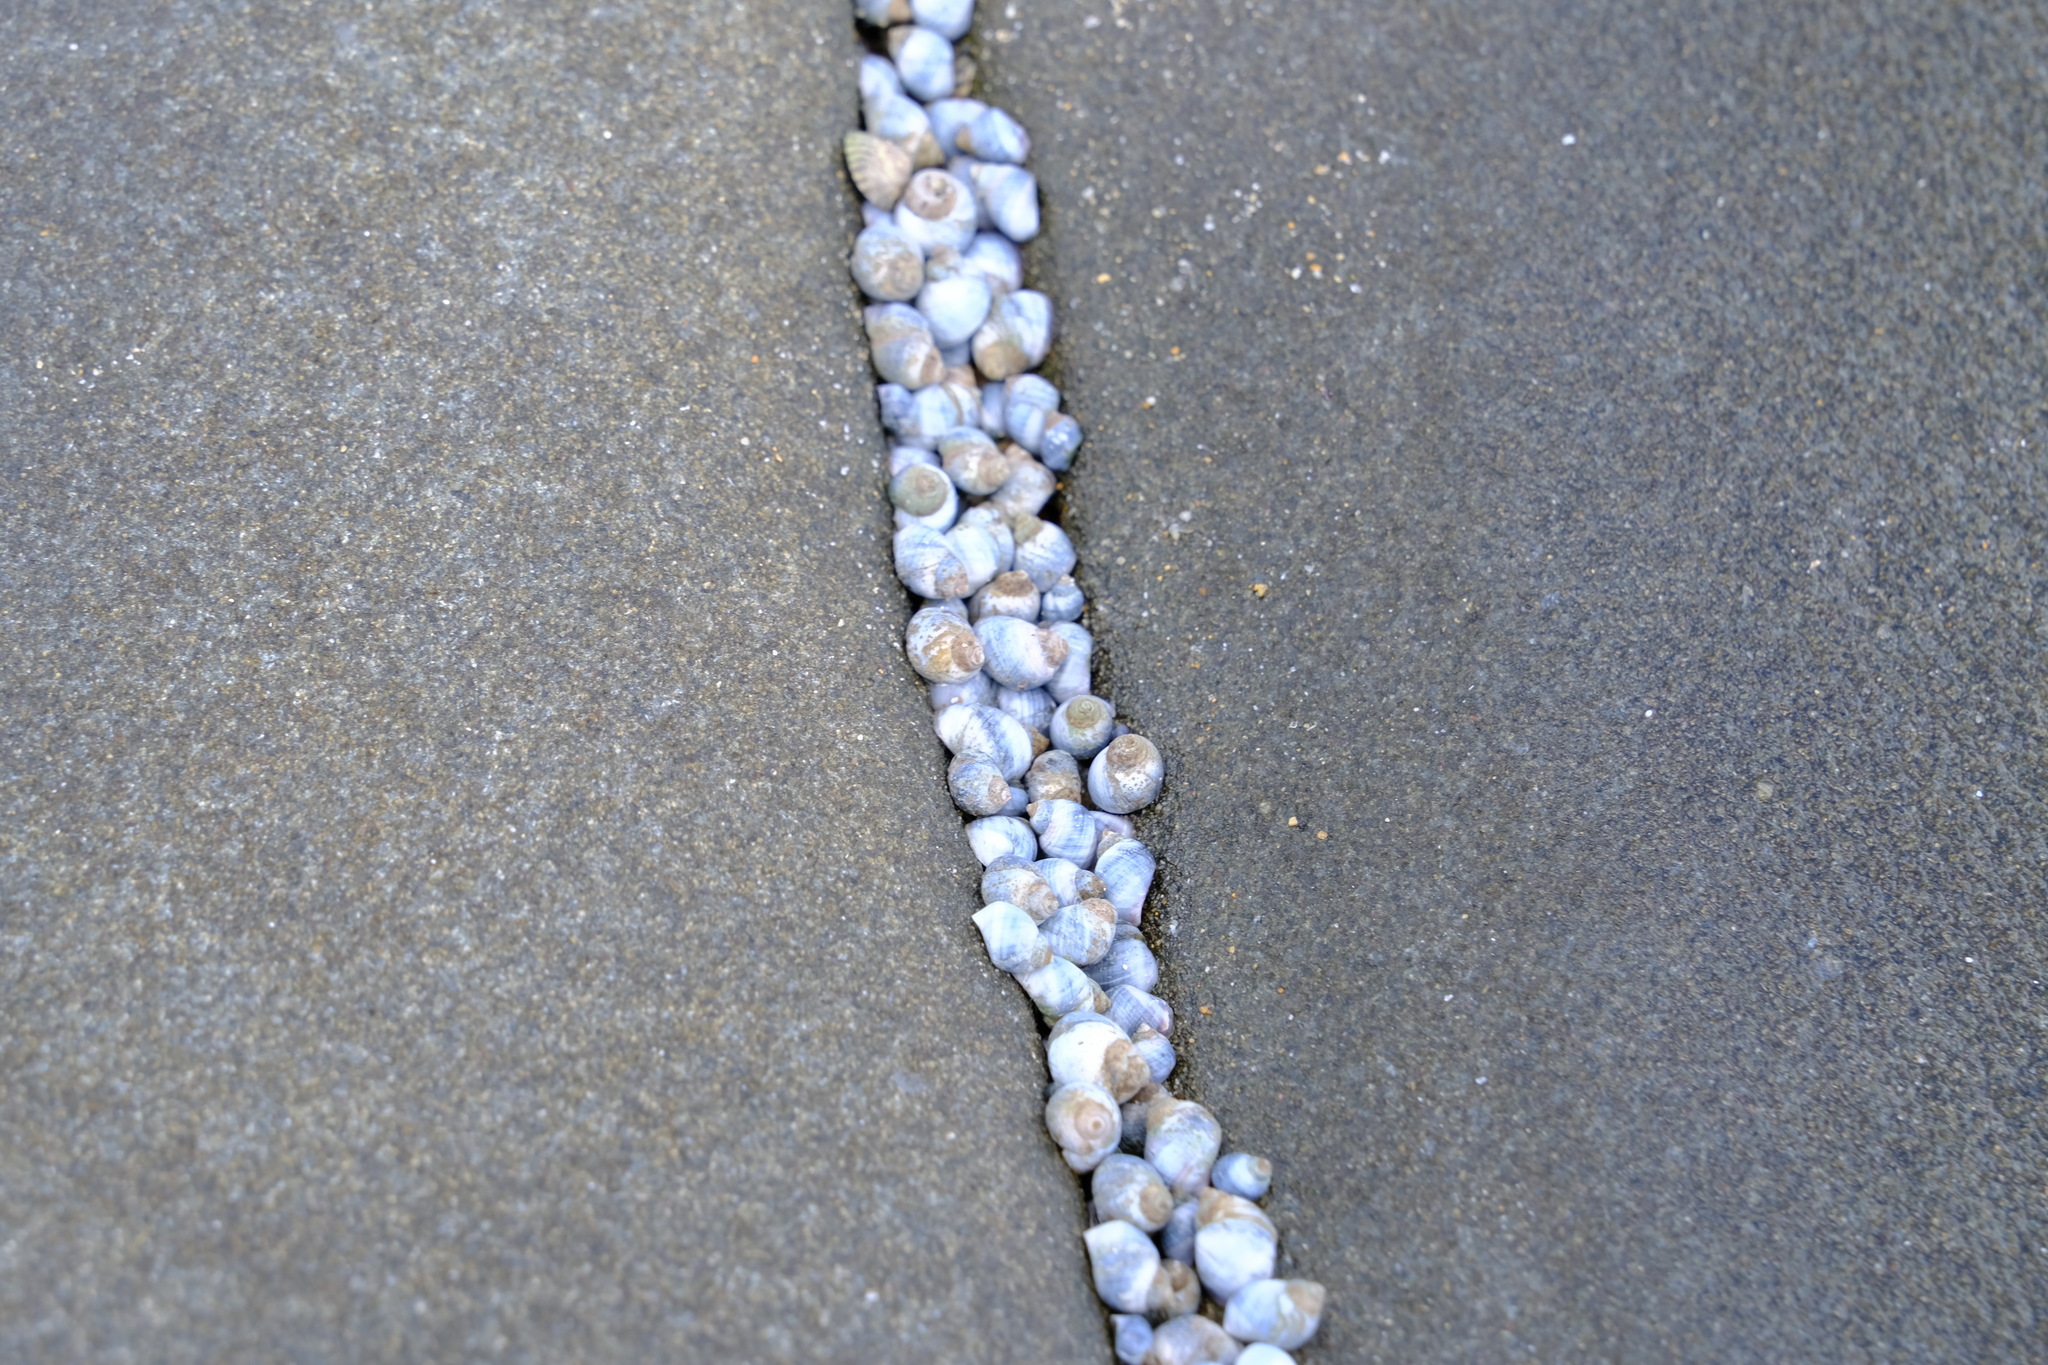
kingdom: Animalia
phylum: Mollusca
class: Gastropoda
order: Littorinimorpha
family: Littorinidae
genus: Austrolittorina
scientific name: Austrolittorina unifasciata
